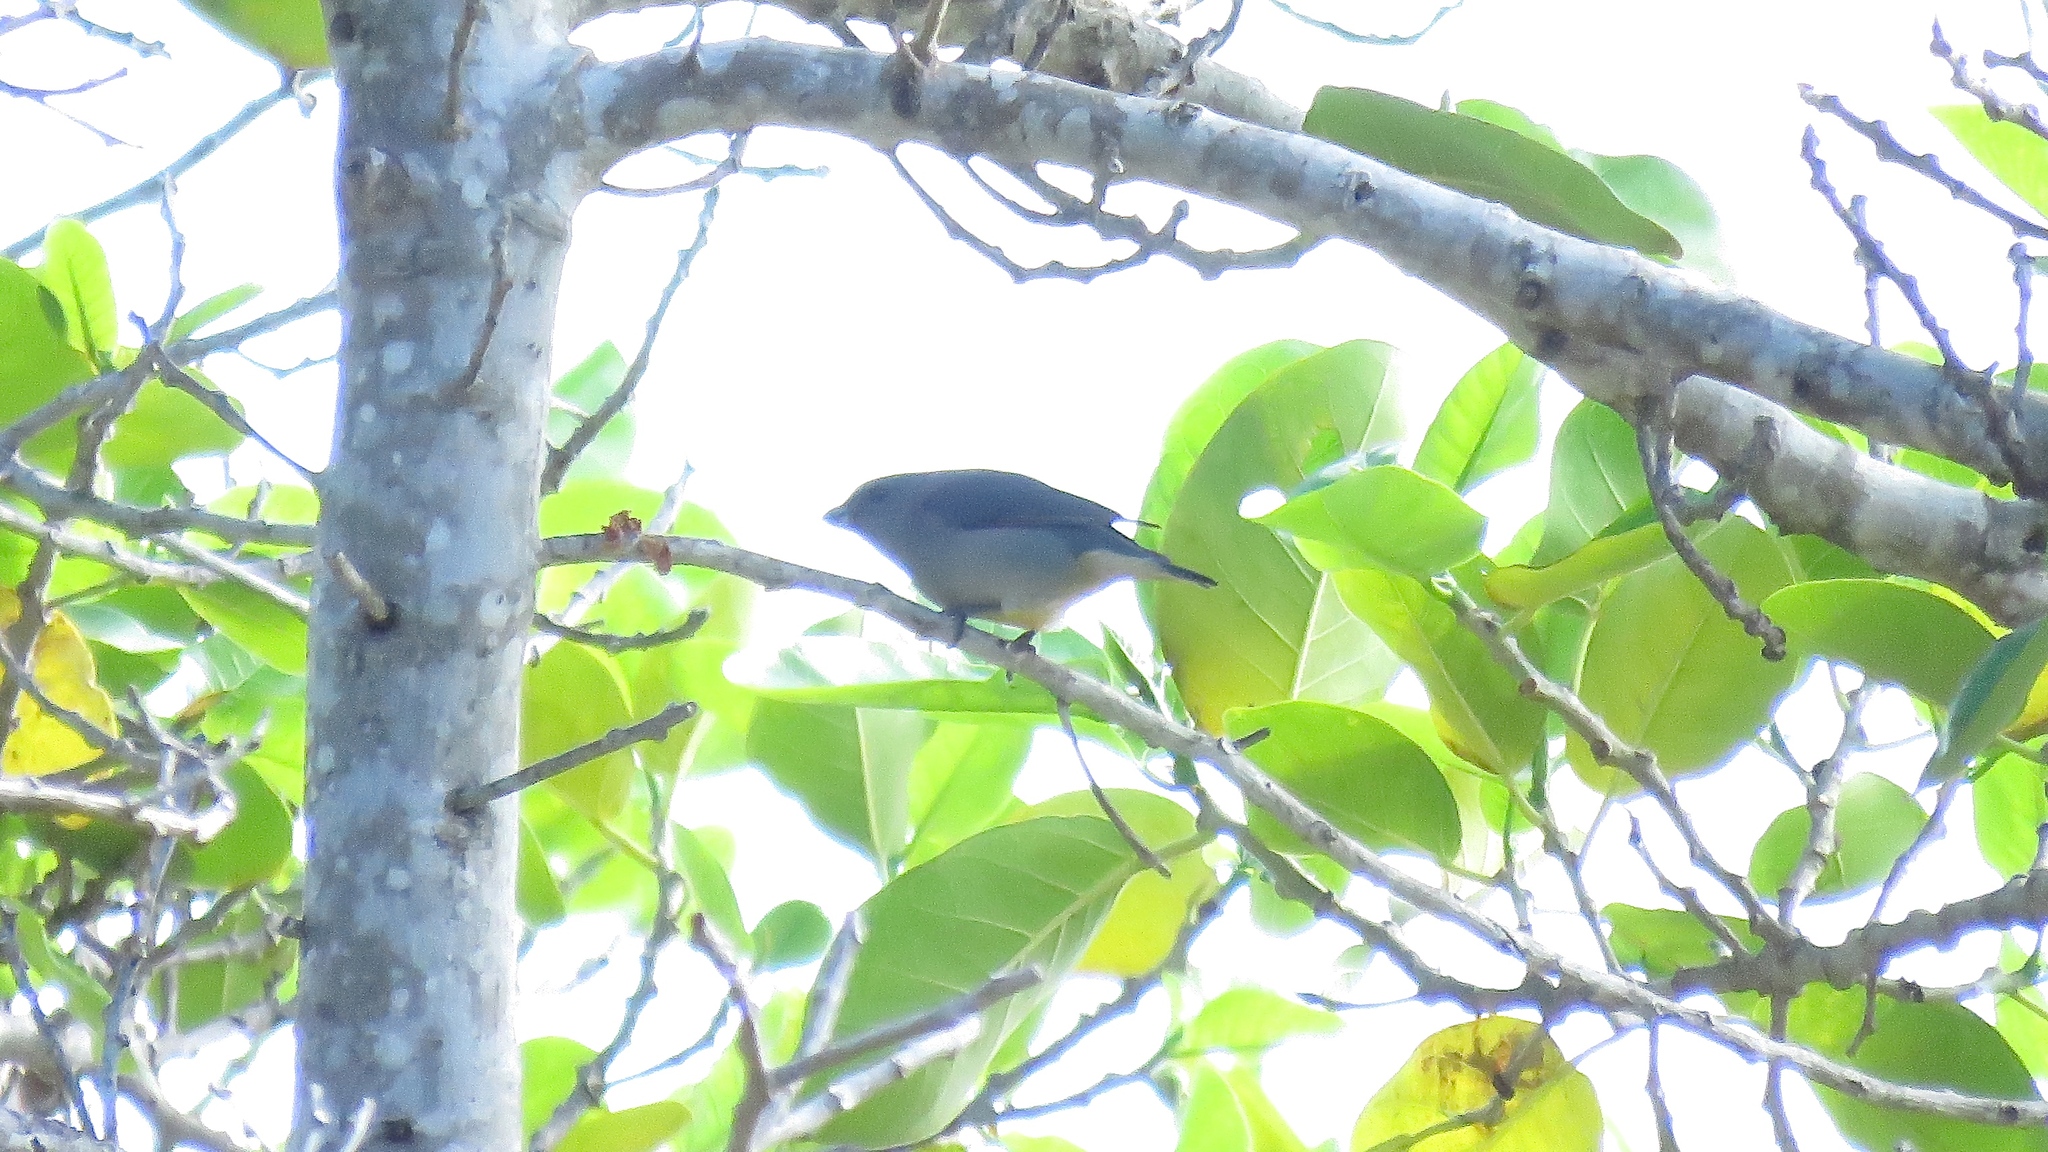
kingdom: Animalia
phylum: Chordata
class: Aves
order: Passeriformes
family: Fringillidae
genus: Euphonia
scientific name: Euphonia jamaica
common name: Jamaican euphonia
